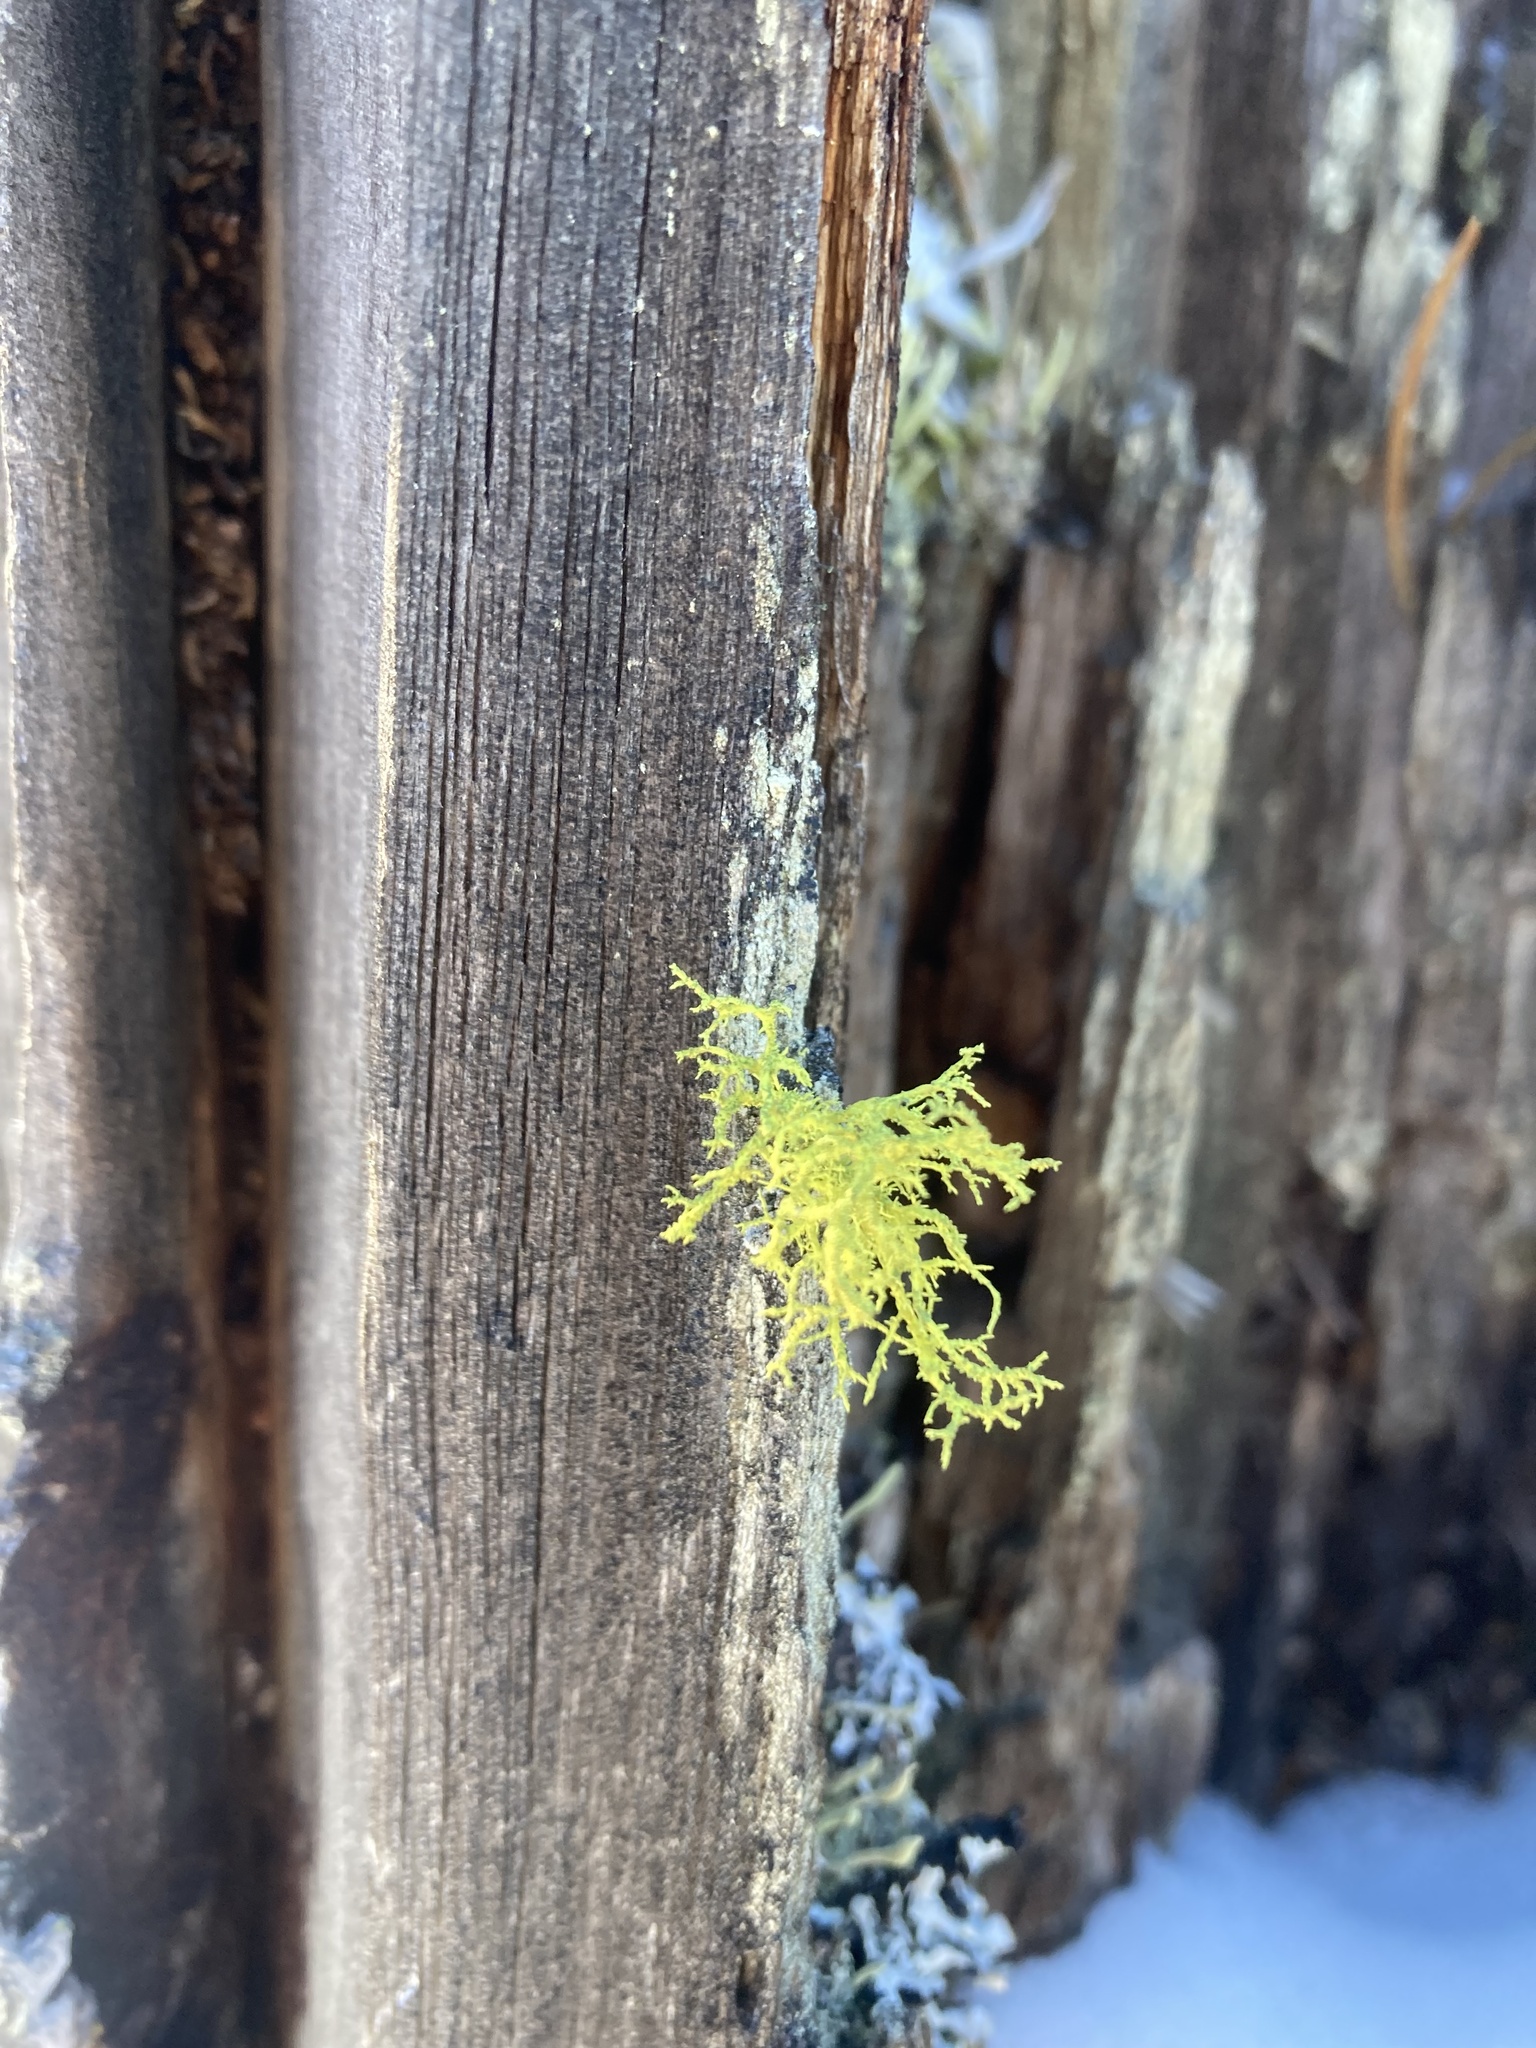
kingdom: Fungi
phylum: Ascomycota
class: Lecanoromycetes
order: Lecanorales
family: Parmeliaceae
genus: Letharia
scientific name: Letharia vulpina
